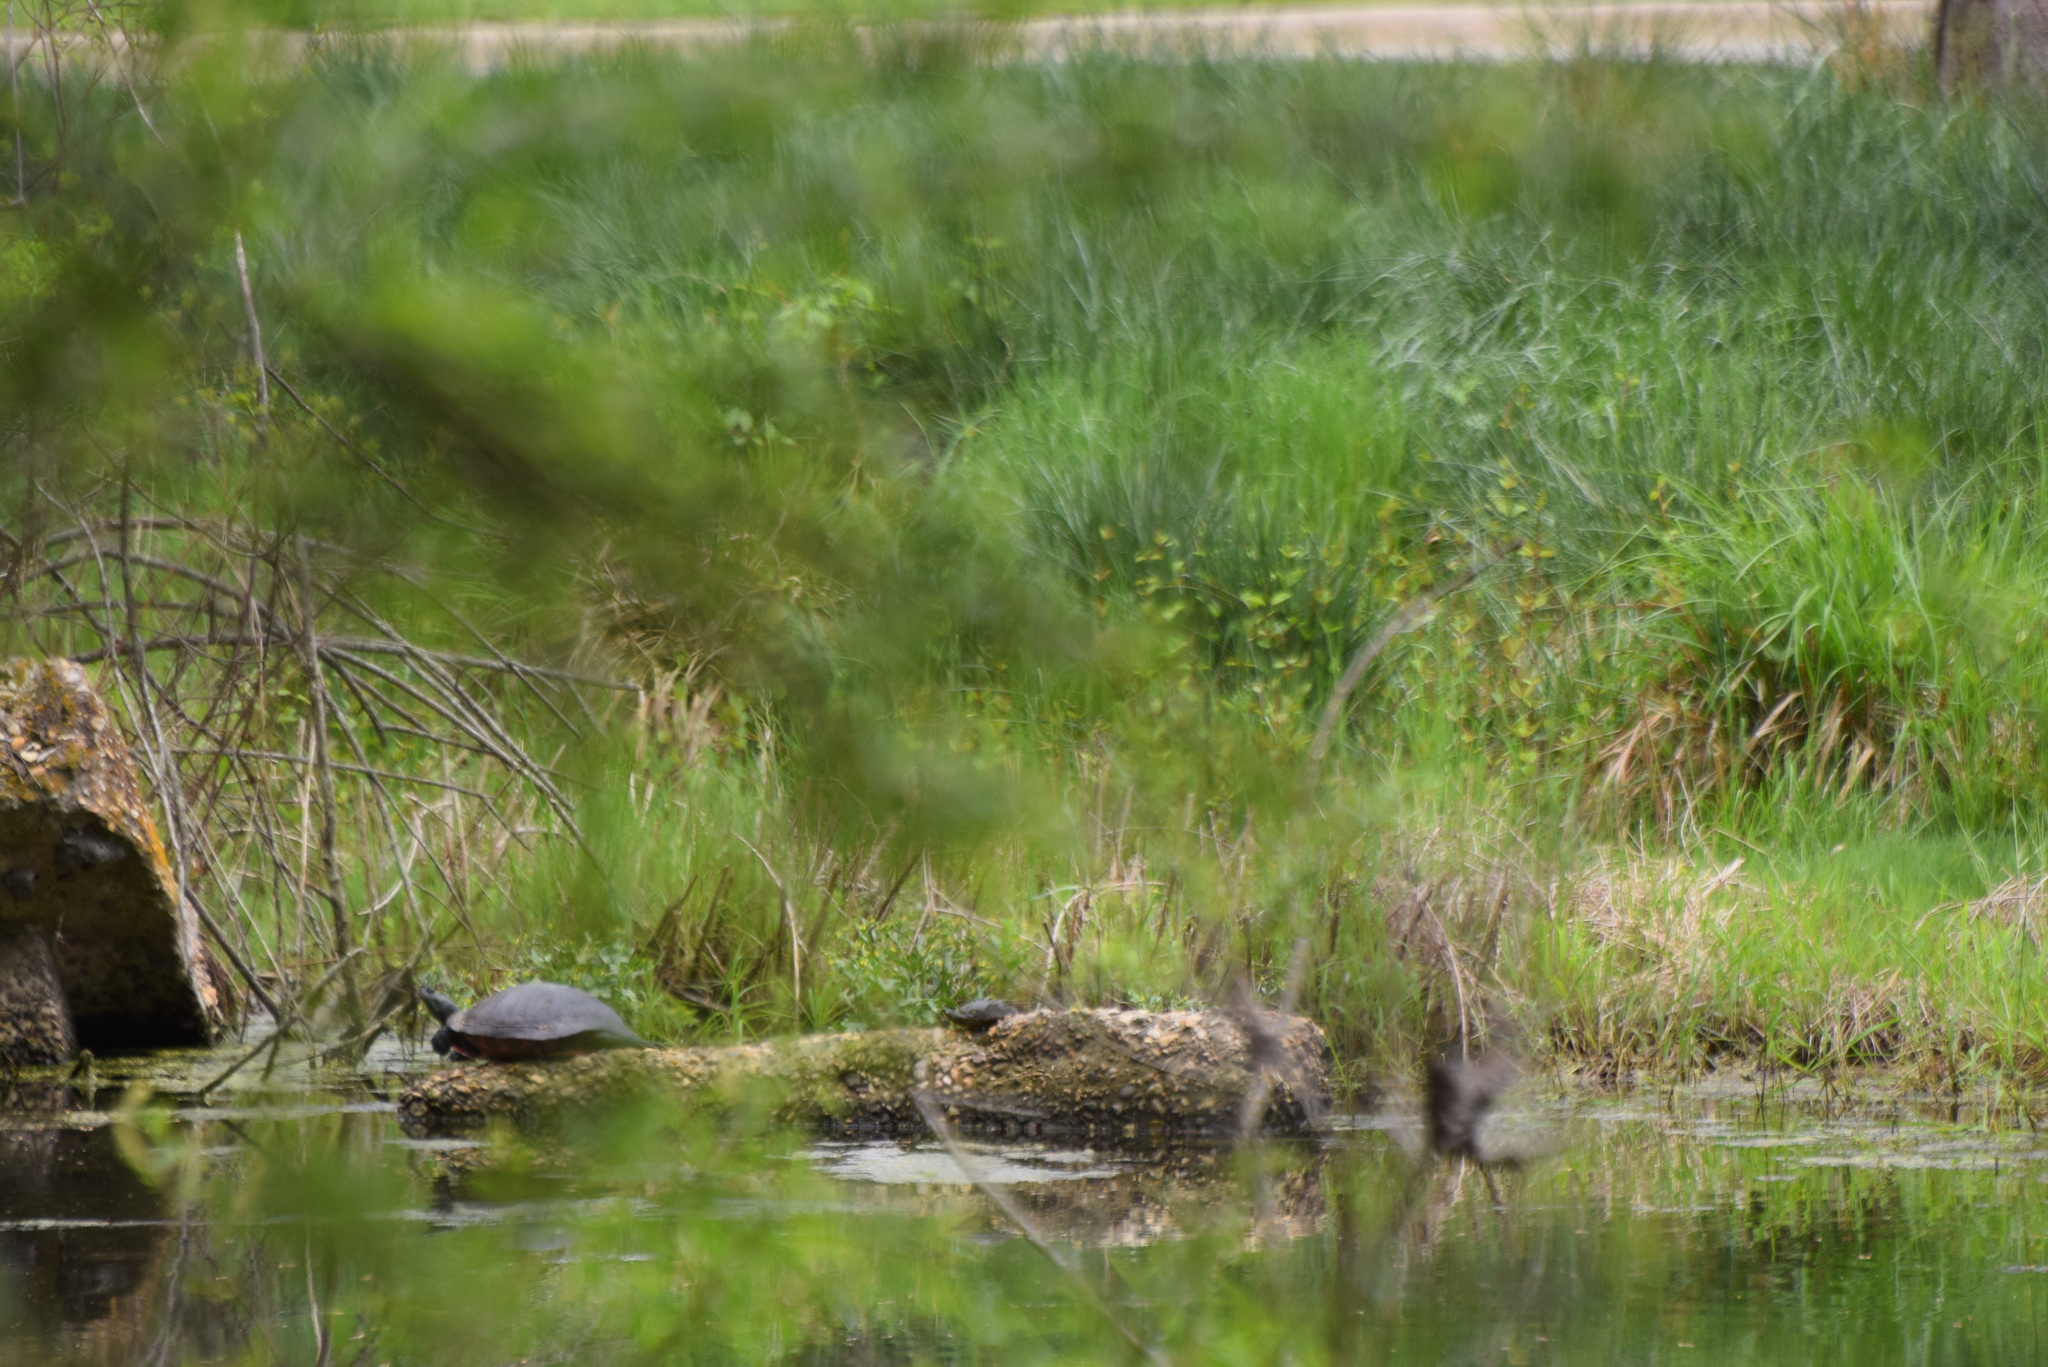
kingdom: Animalia
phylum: Chordata
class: Testudines
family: Emydidae
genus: Pseudemys
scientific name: Pseudemys rubriventris
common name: American red-bellied turtle
